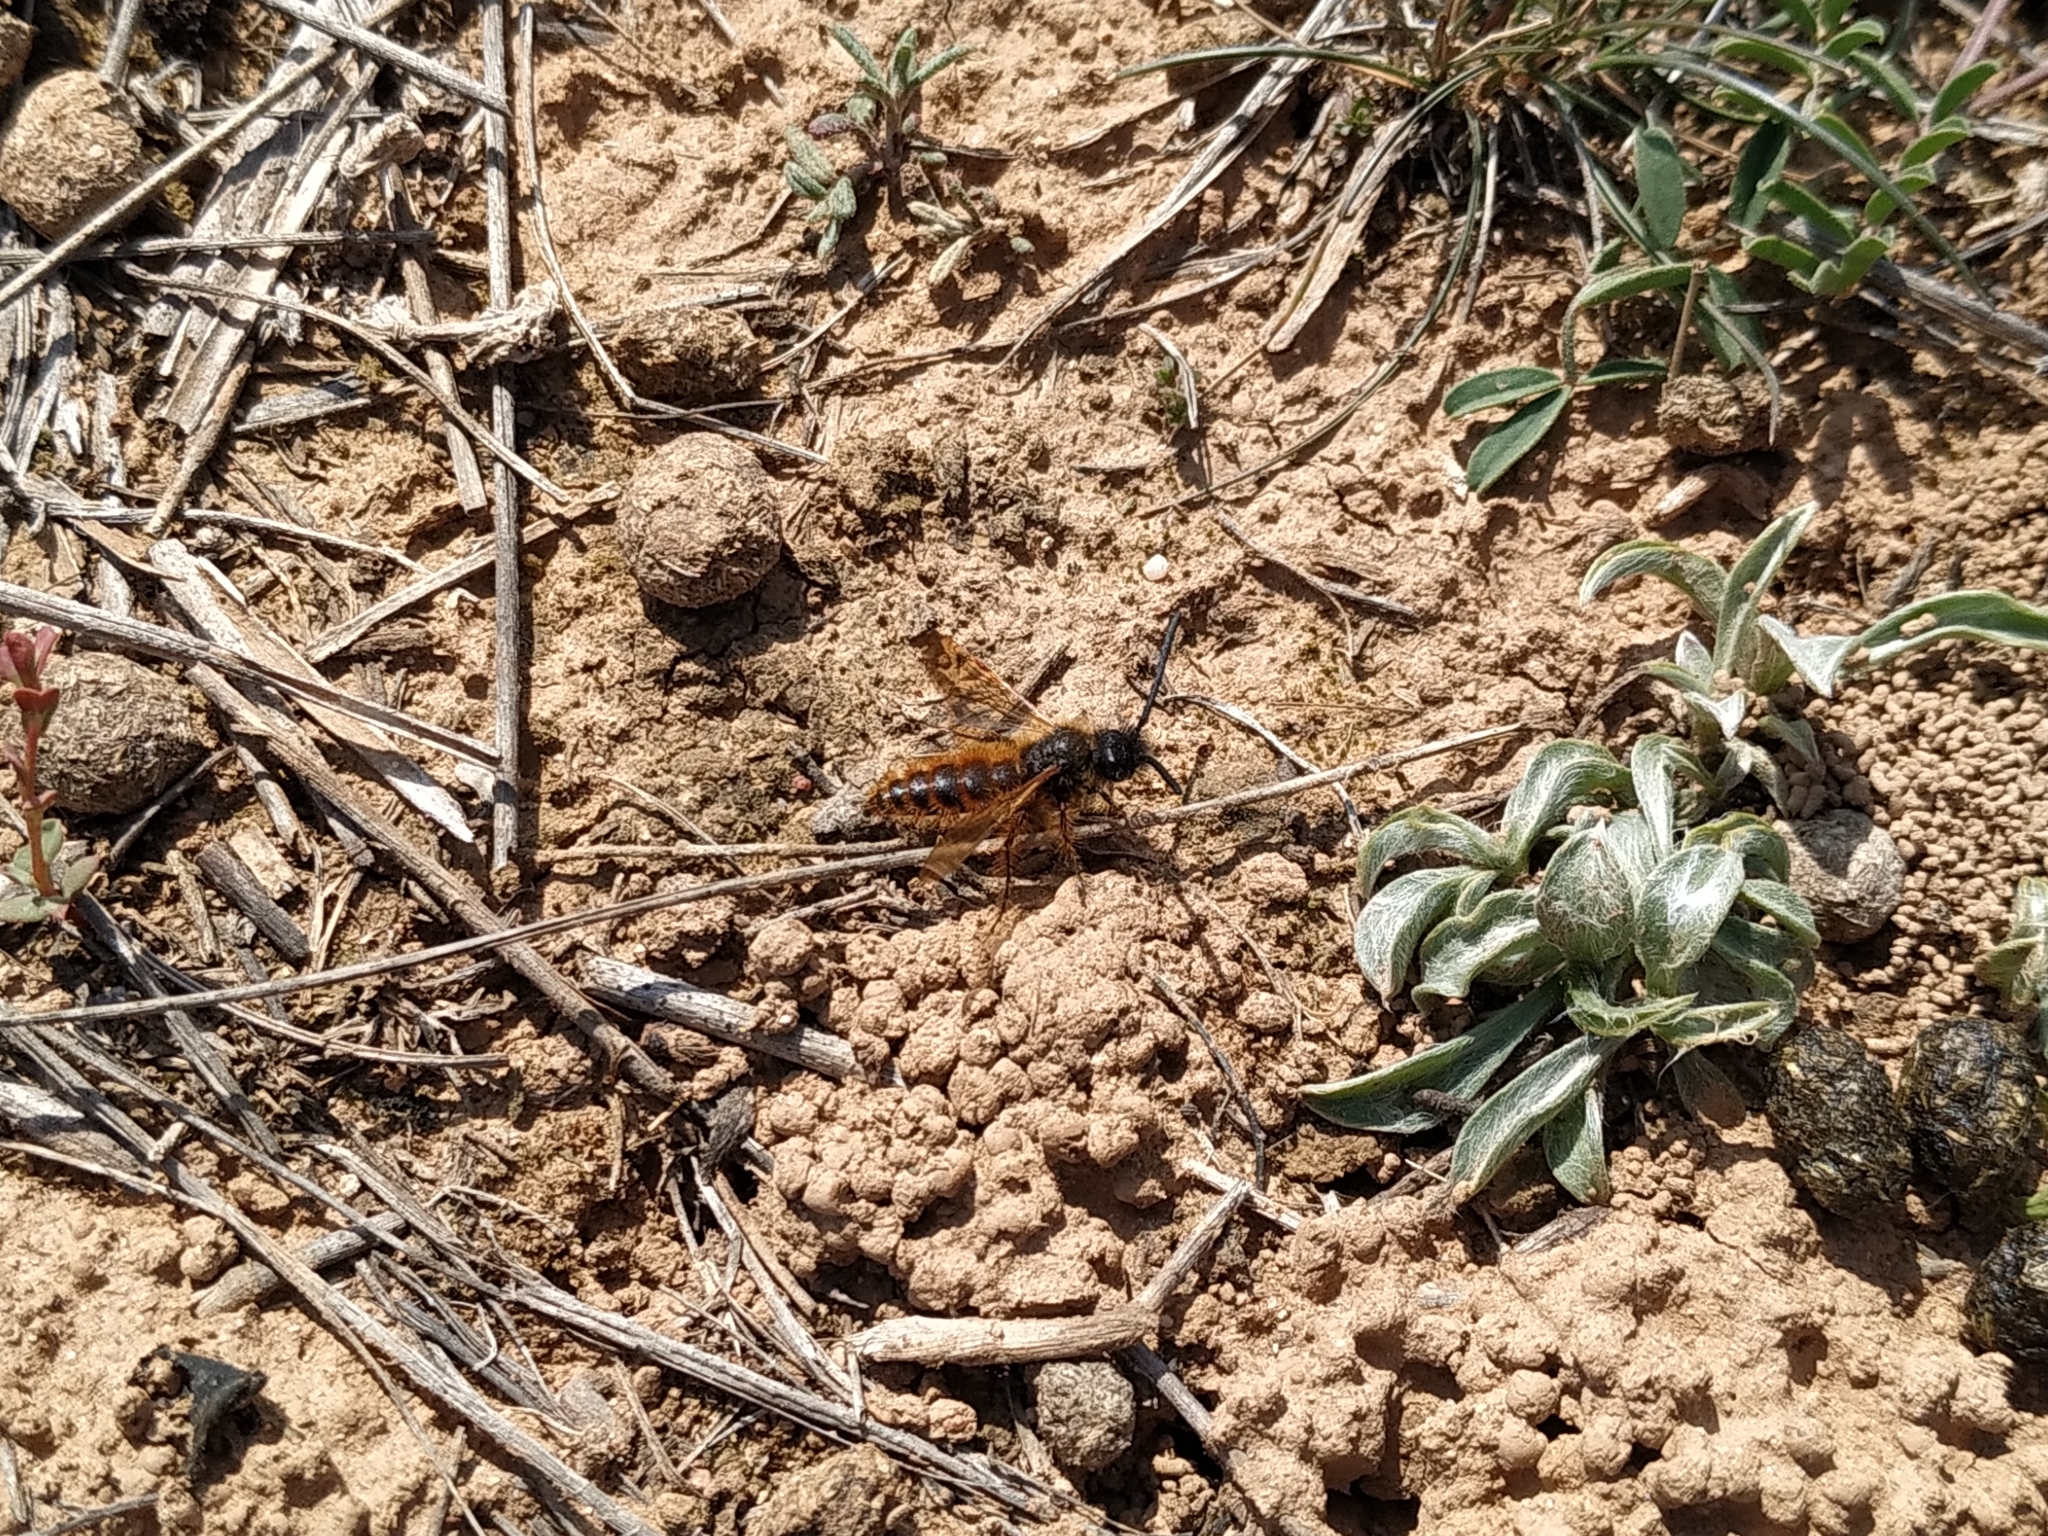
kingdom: Animalia
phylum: Arthropoda
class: Insecta
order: Hymenoptera
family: Scoliidae
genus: Dasyscolia
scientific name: Dasyscolia ciliata
